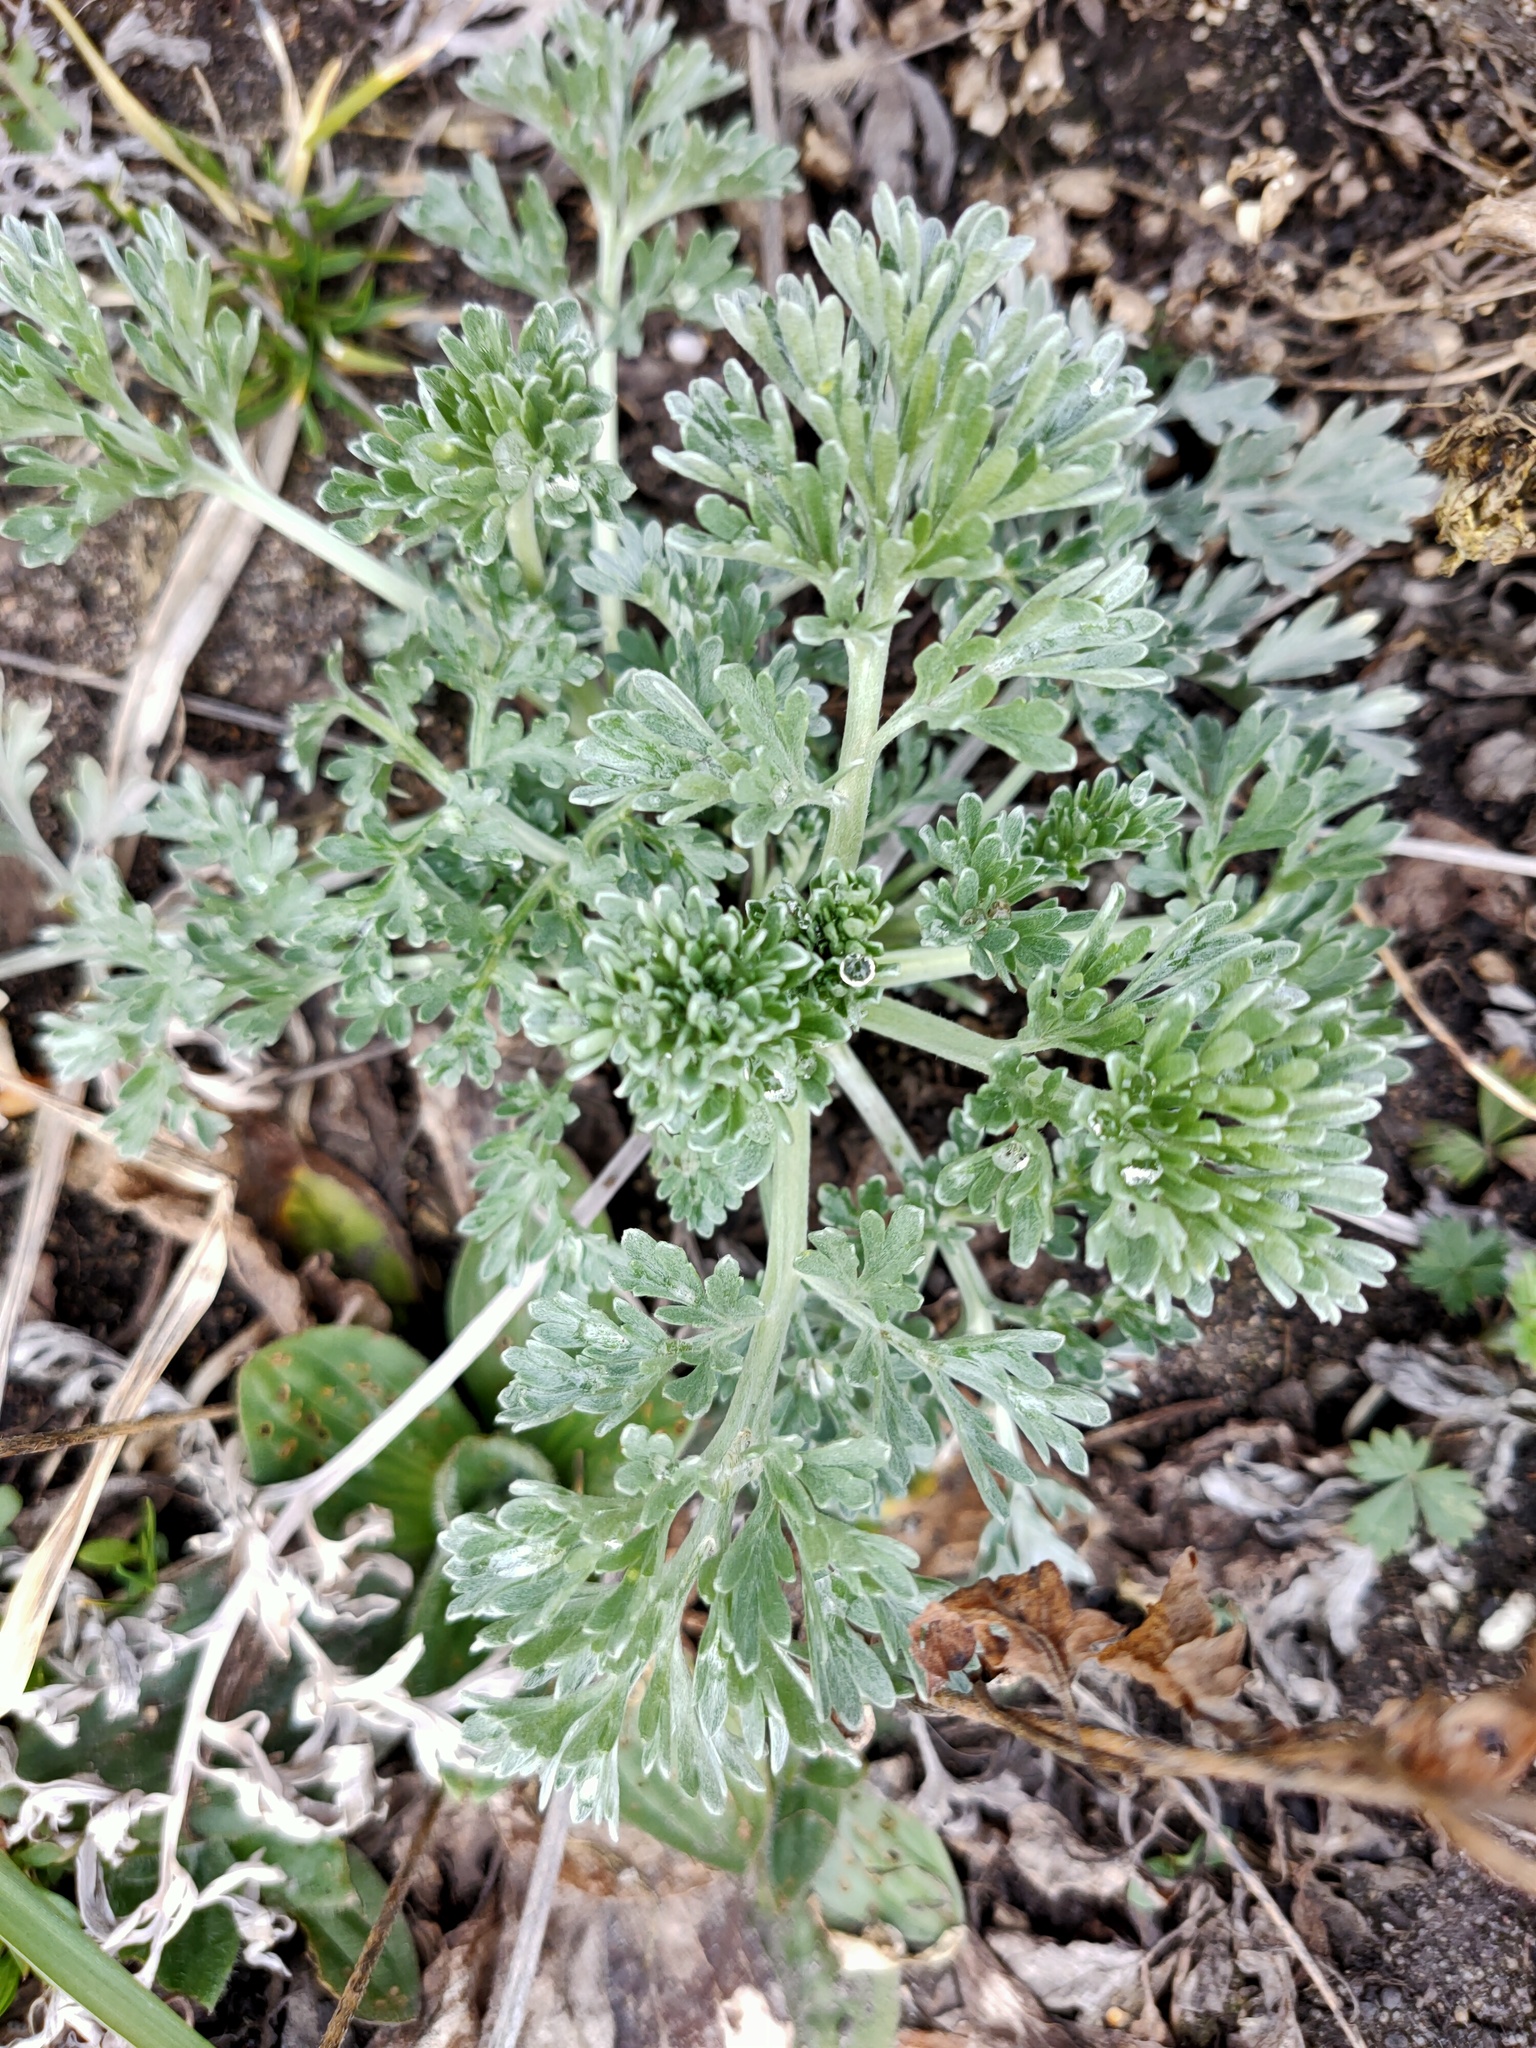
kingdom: Plantae
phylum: Tracheophyta
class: Magnoliopsida
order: Asterales
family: Asteraceae
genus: Artemisia
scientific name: Artemisia absinthium
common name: Wormwood
